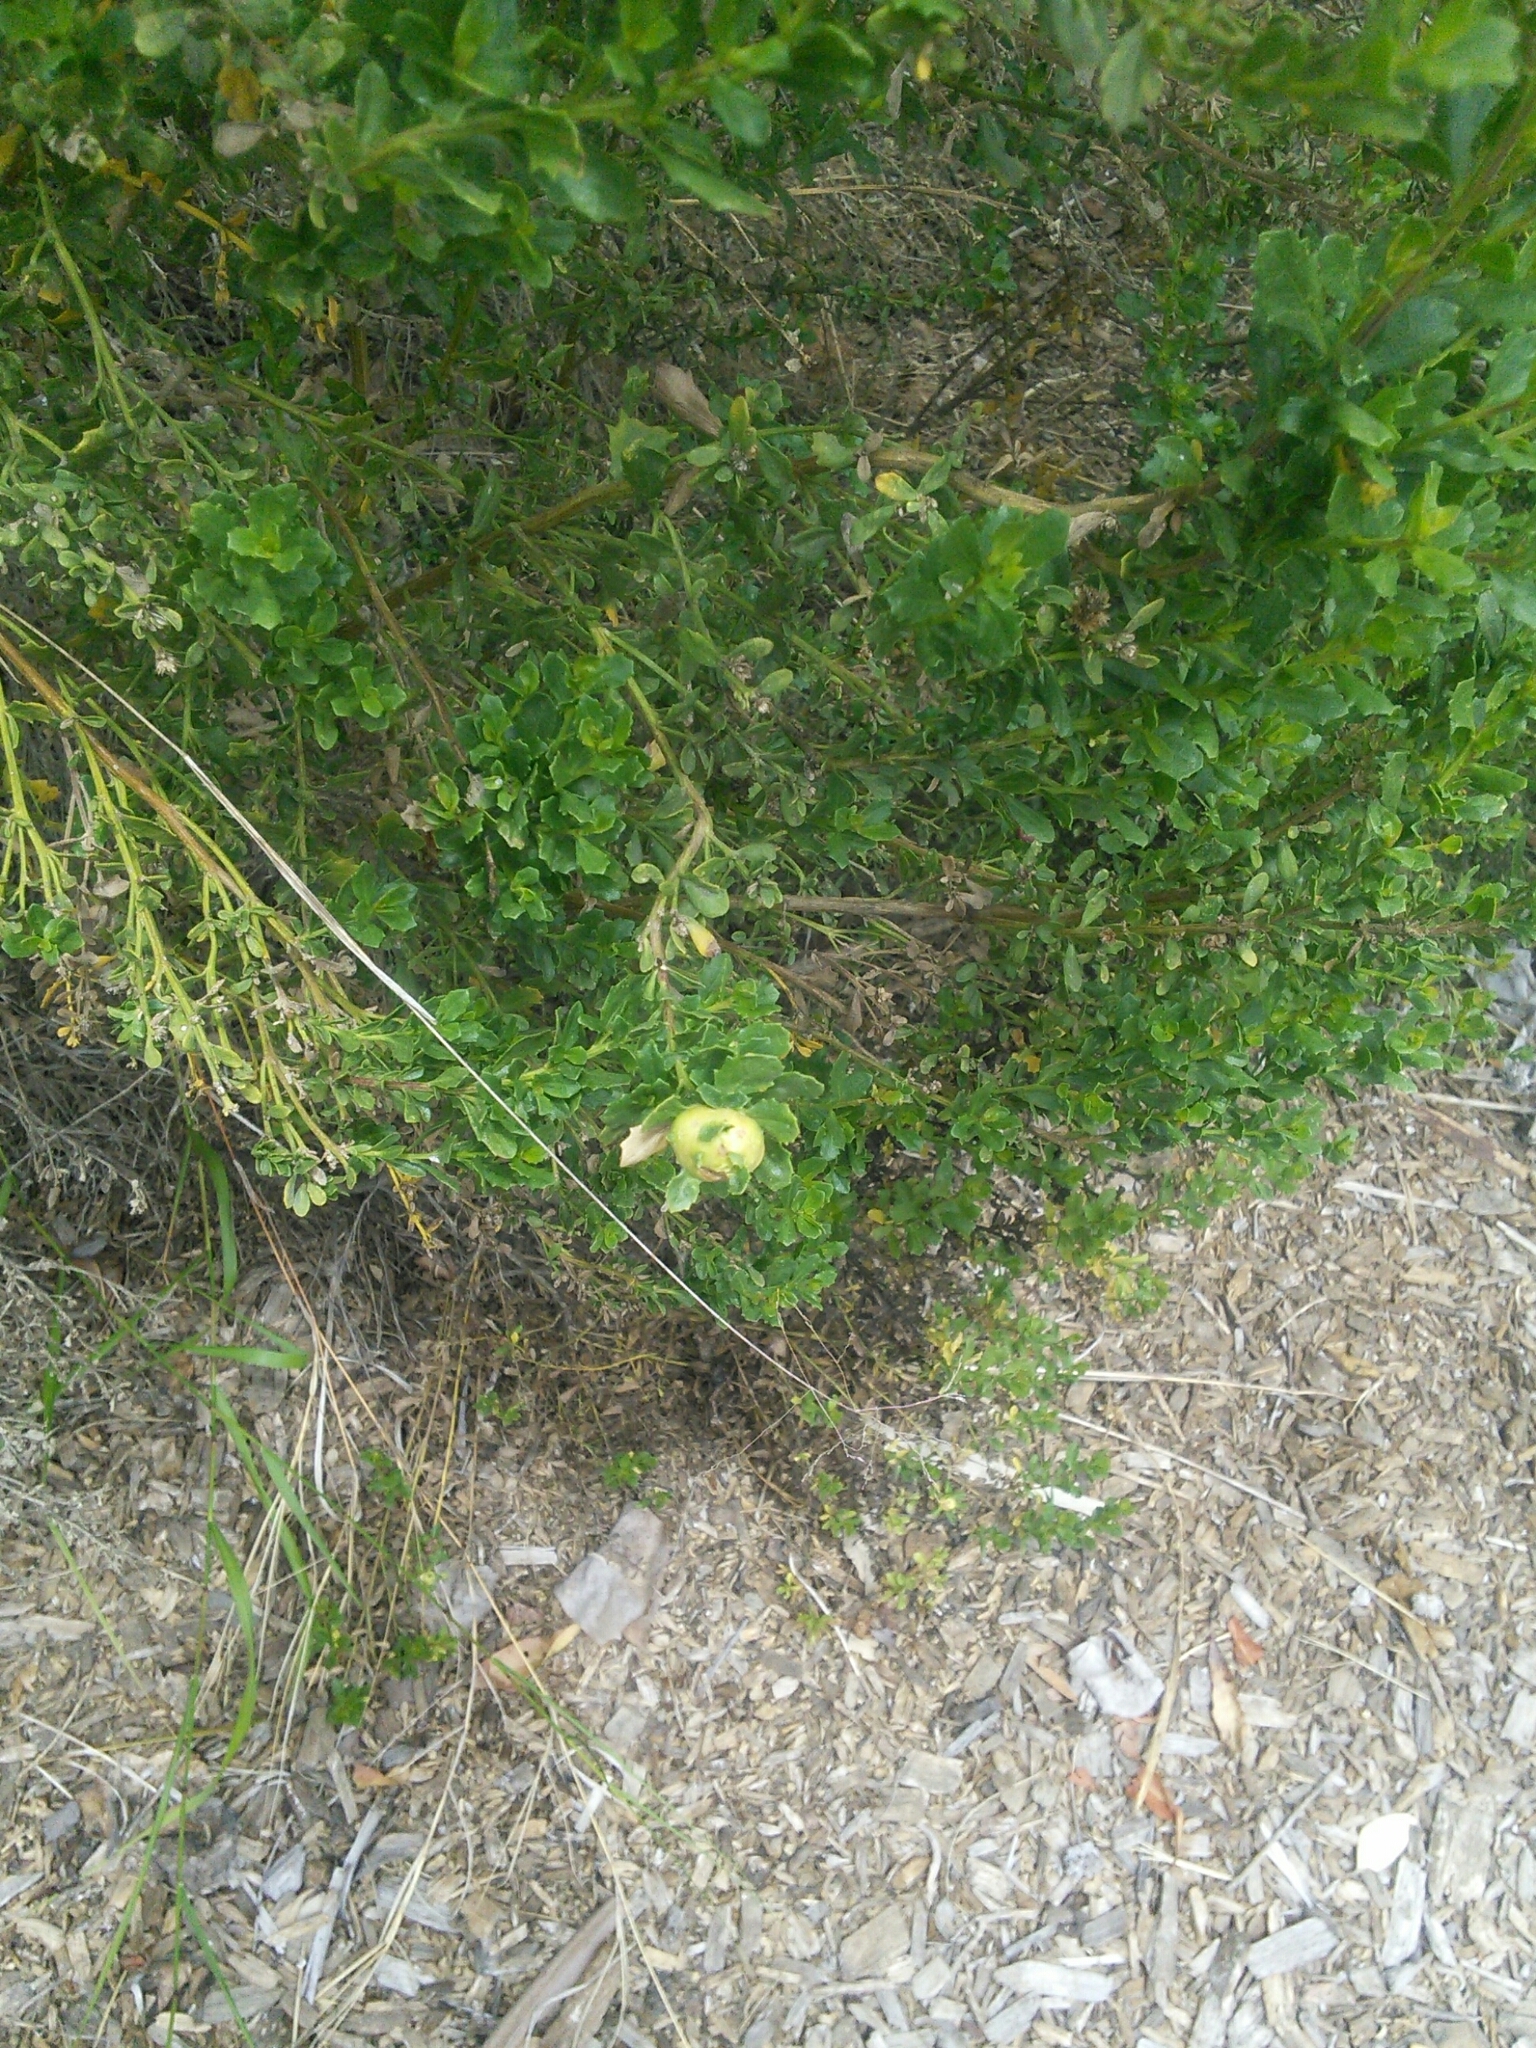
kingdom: Animalia
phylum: Arthropoda
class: Insecta
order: Diptera
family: Cecidomyiidae
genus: Rhopalomyia
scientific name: Rhopalomyia californica
